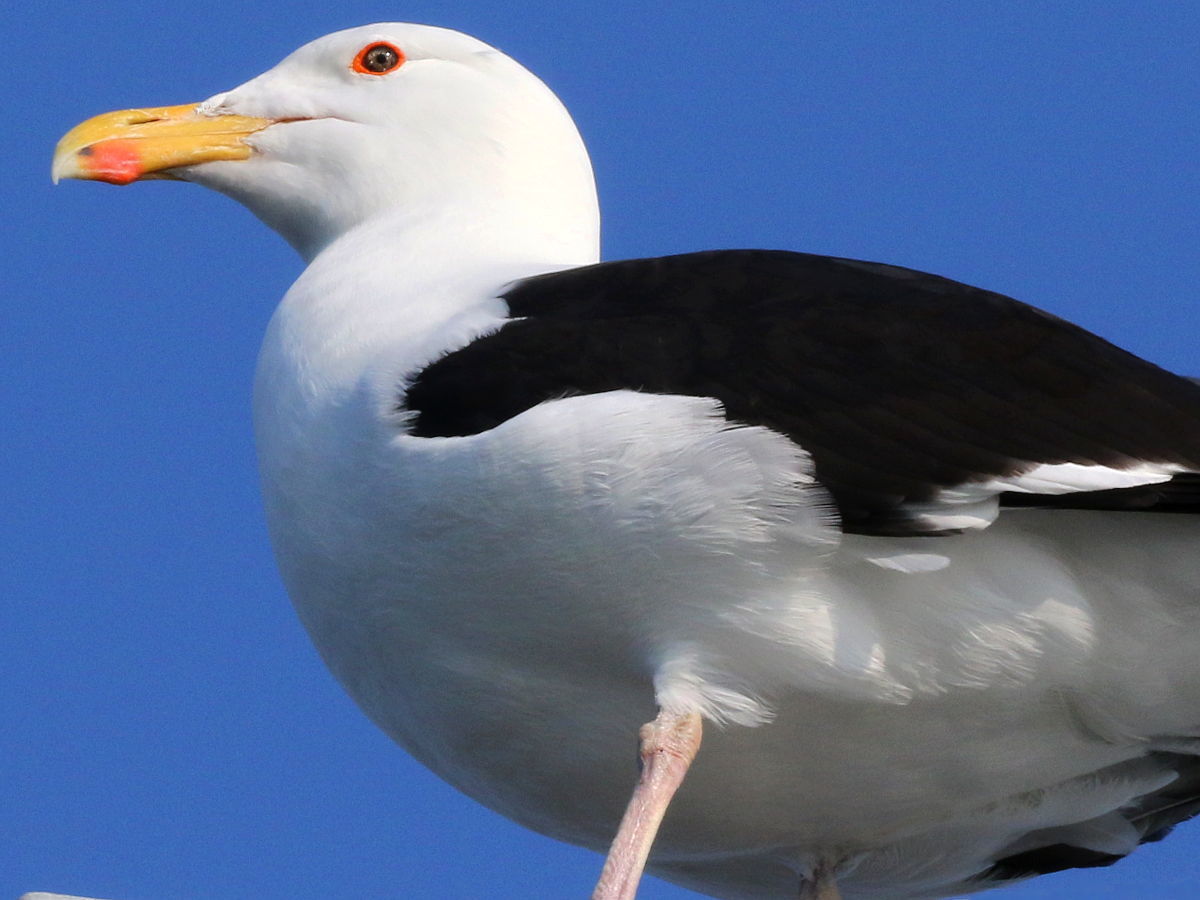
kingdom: Animalia
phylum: Chordata
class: Aves
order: Charadriiformes
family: Laridae
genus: Larus
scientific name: Larus marinus
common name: Great black-backed gull
